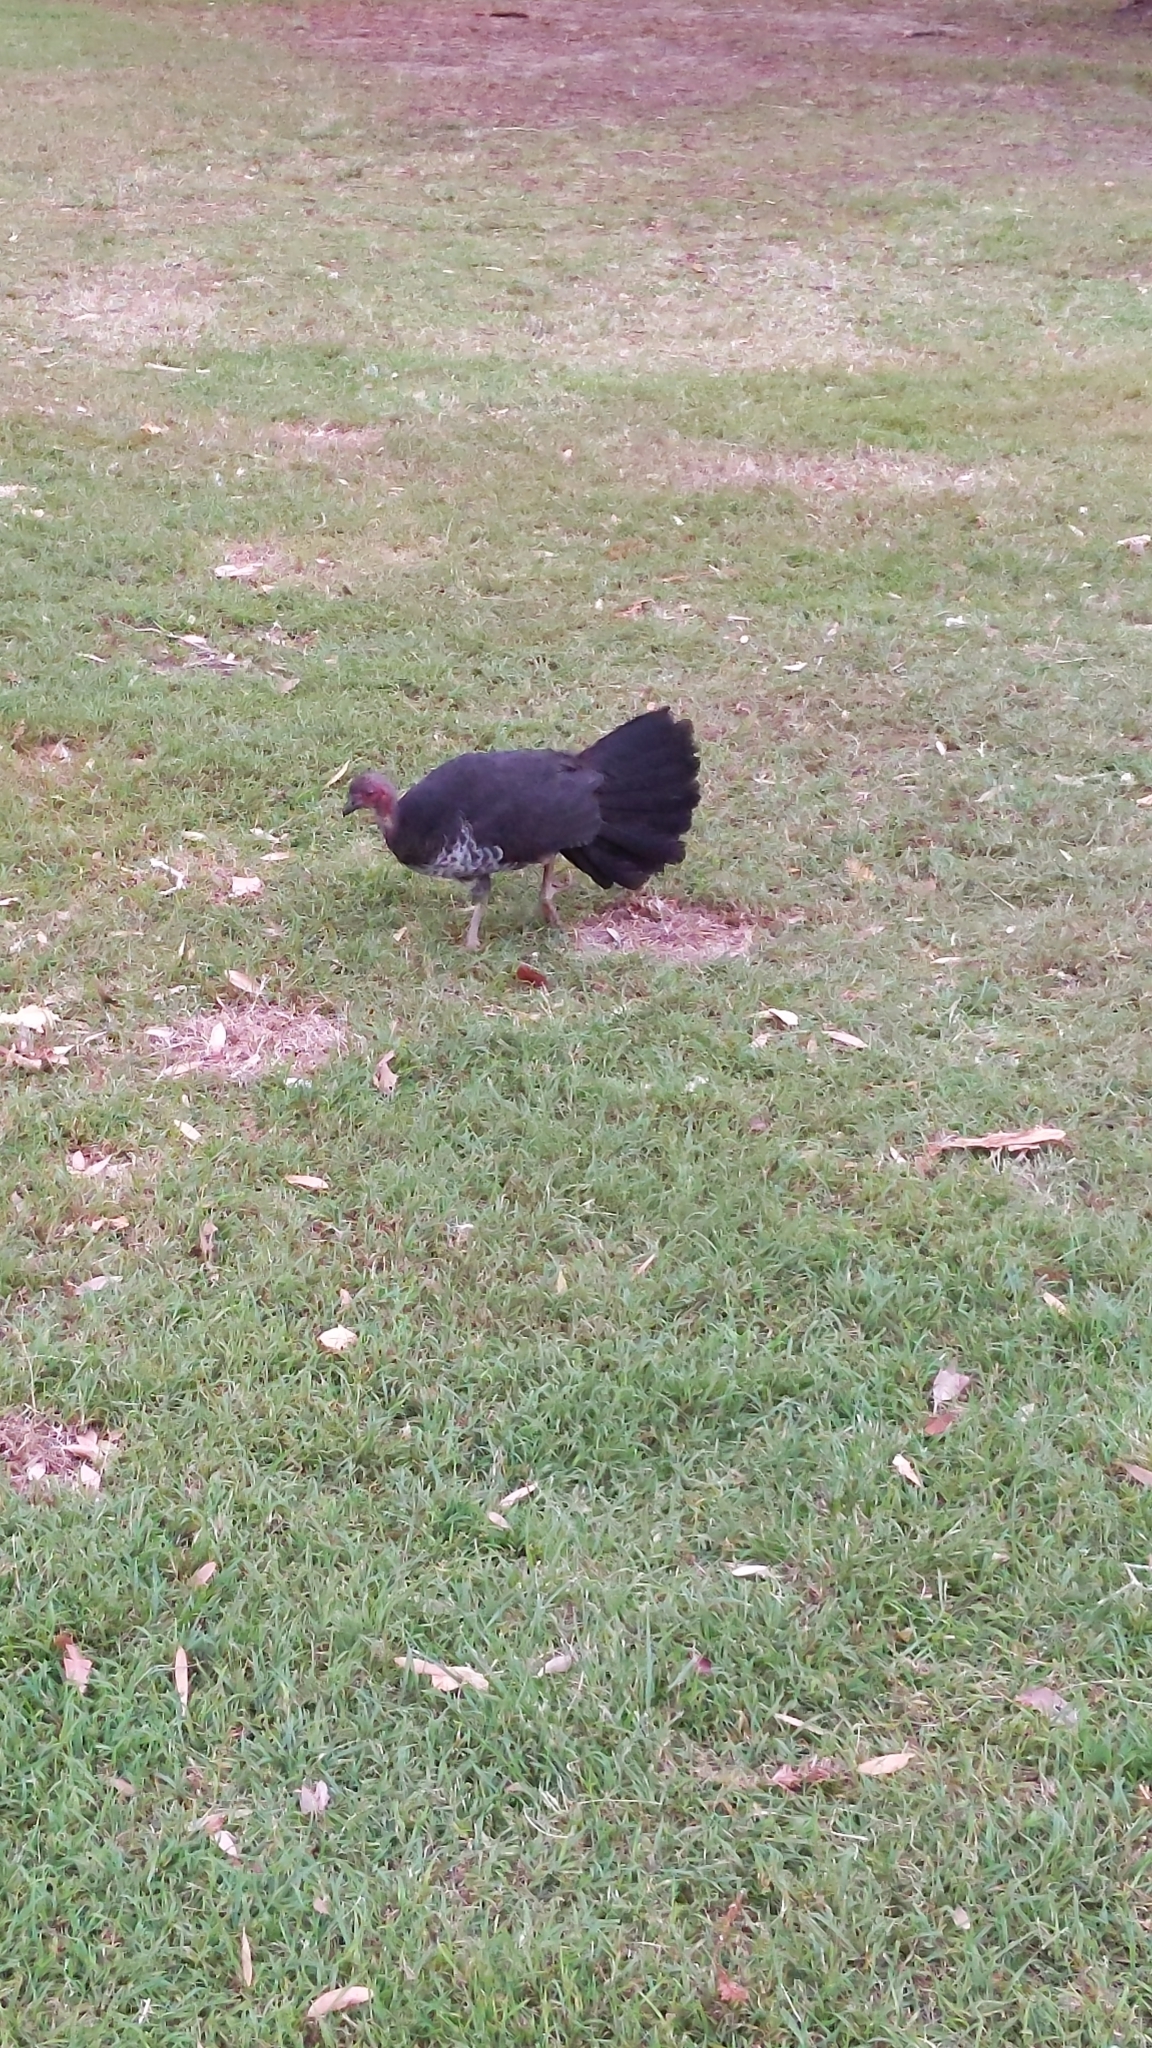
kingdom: Animalia
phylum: Chordata
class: Aves
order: Galliformes
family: Megapodiidae
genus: Alectura
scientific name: Alectura lathami
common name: Australian brushturkey
